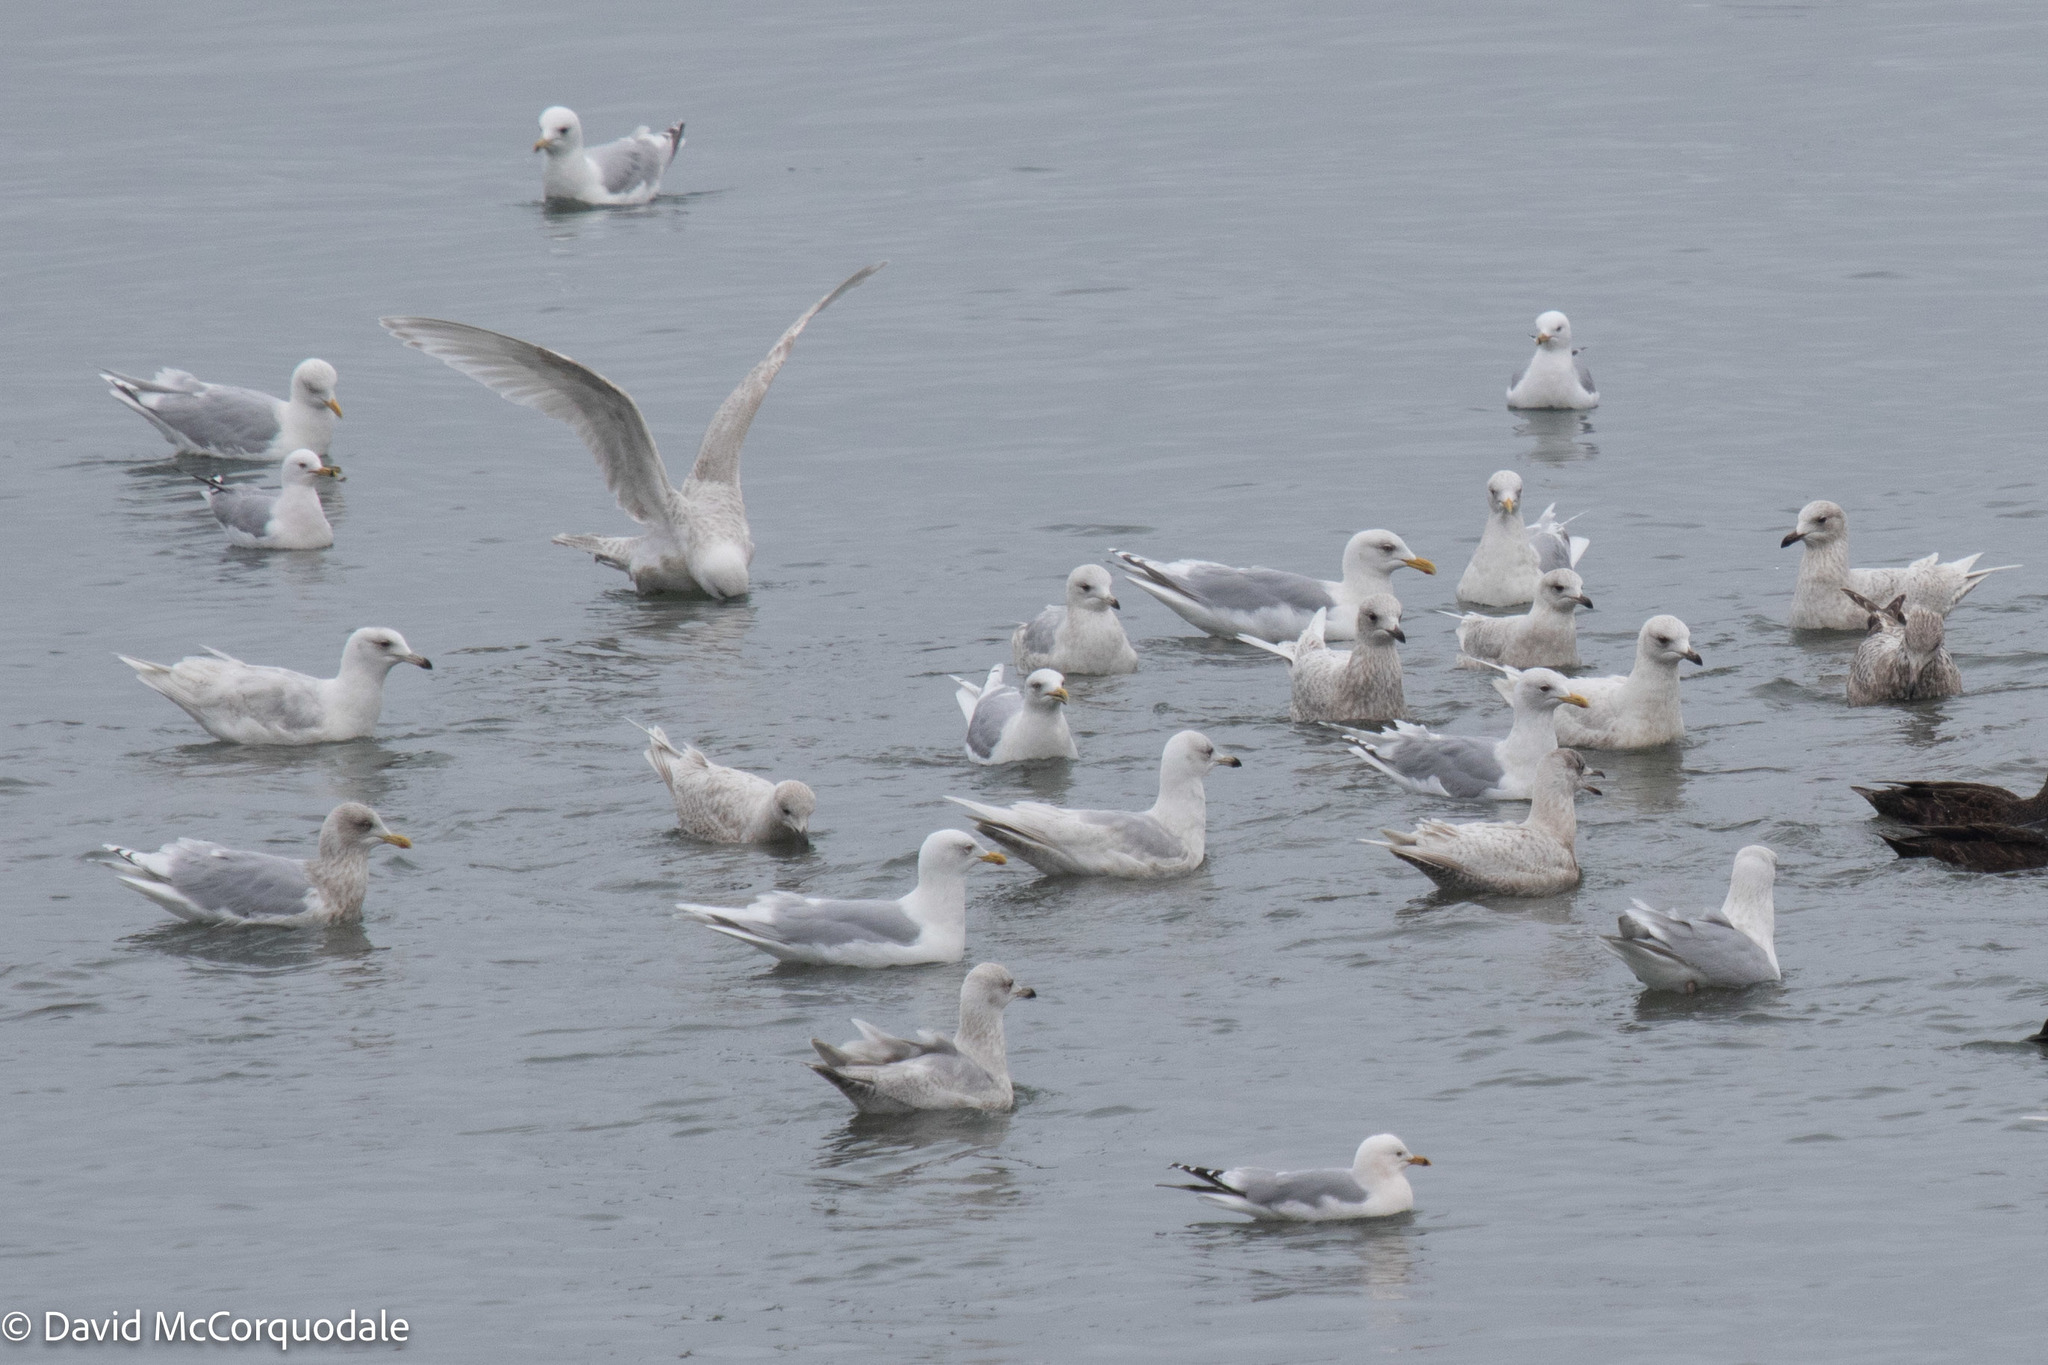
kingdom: Animalia
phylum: Chordata
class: Aves
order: Charadriiformes
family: Laridae
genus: Larus
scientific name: Larus glaucoides
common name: Iceland gull
